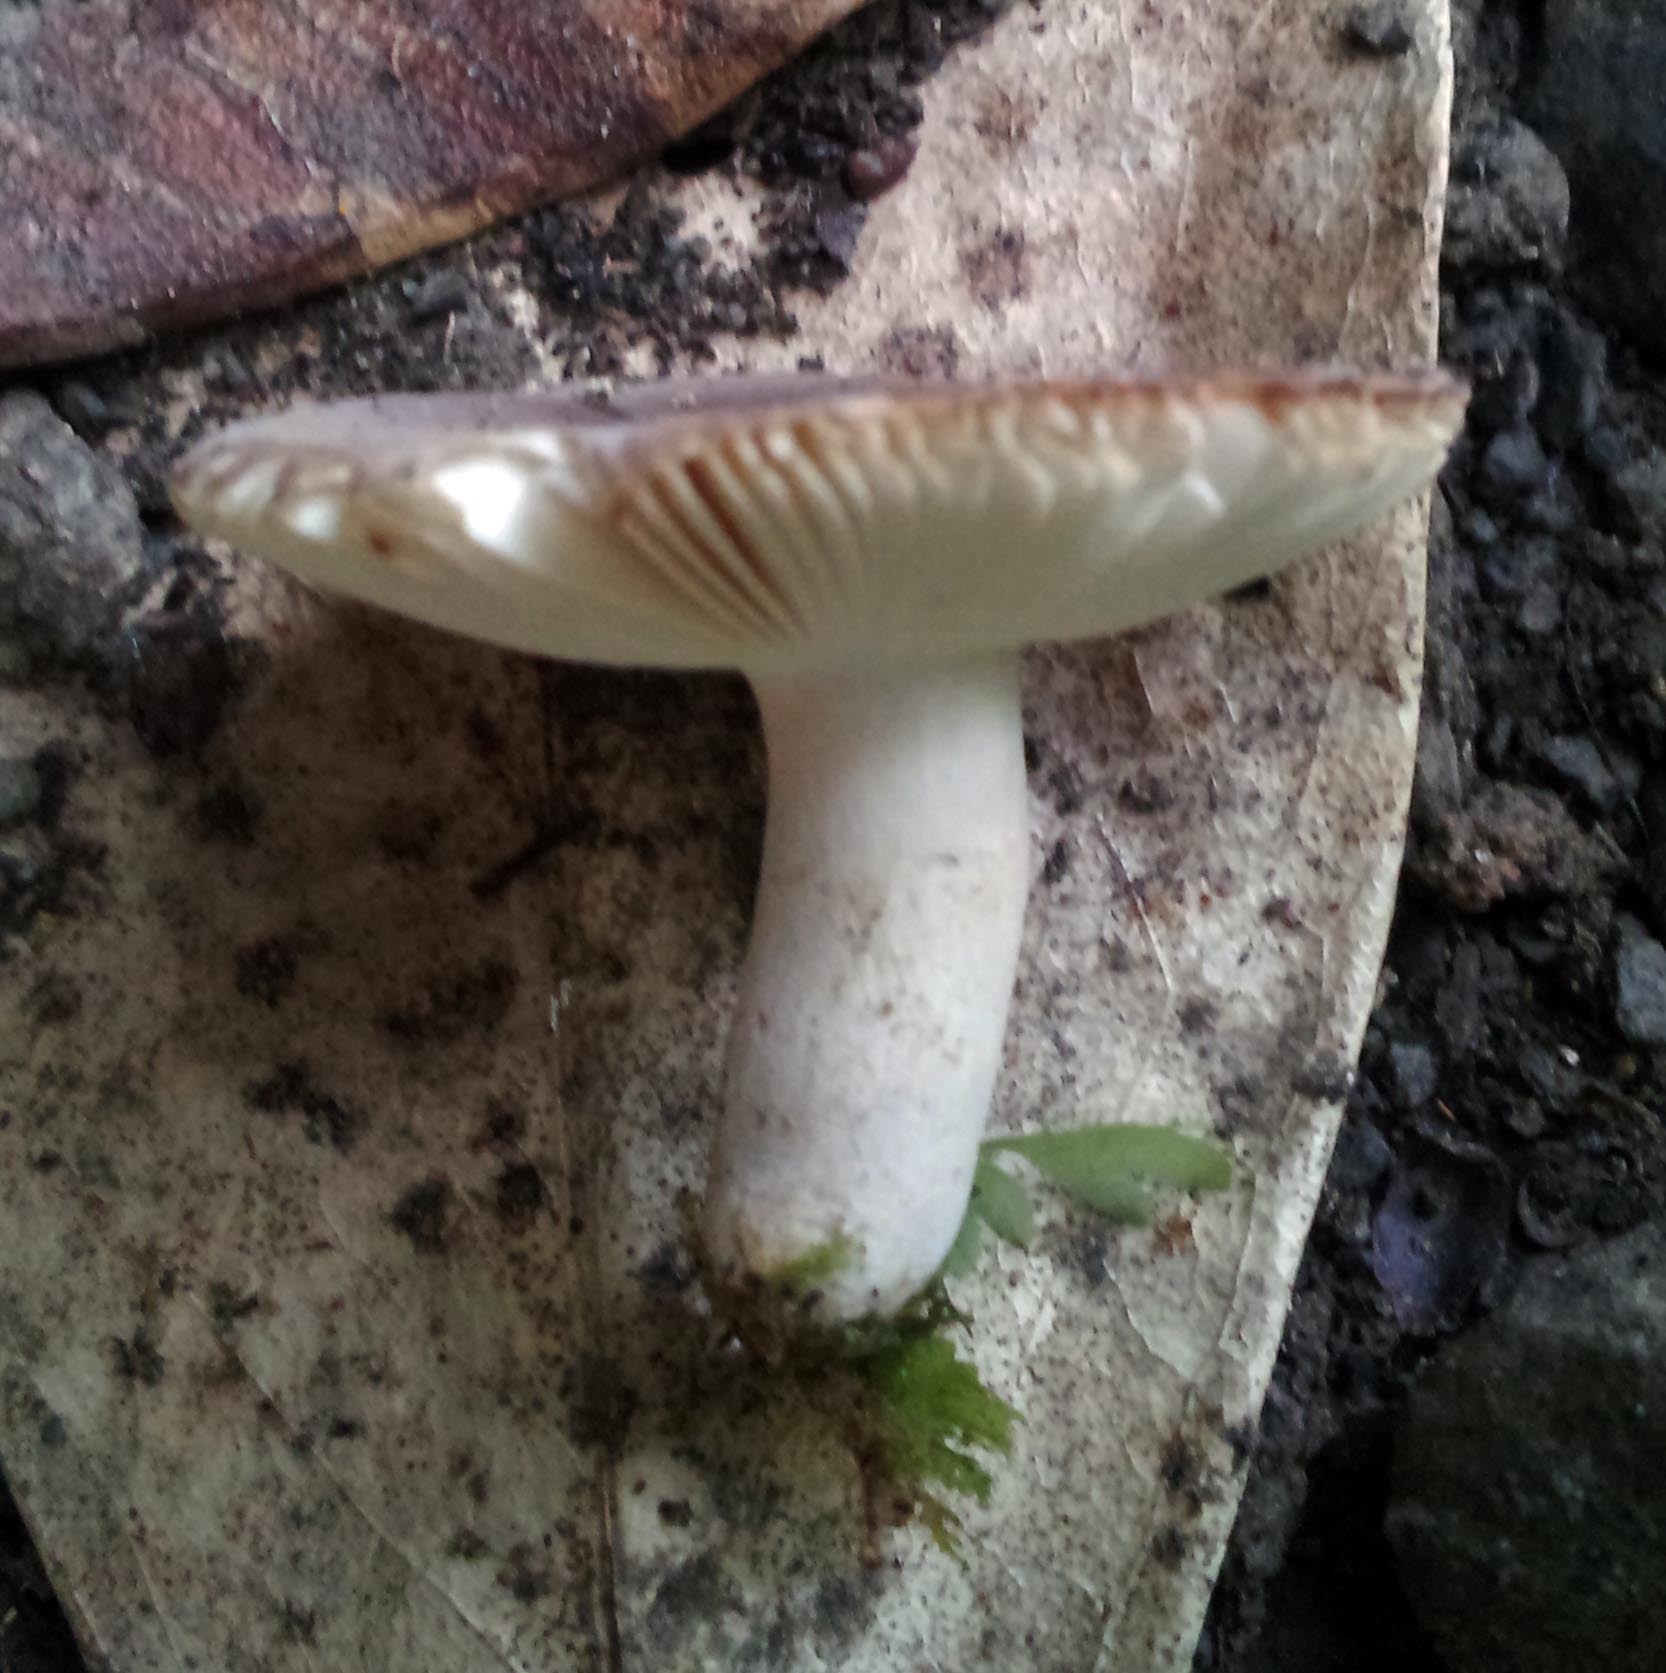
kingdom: Fungi
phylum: Basidiomycota
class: Agaricomycetes
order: Russulales
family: Russulaceae
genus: Russula
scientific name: Russula griseobrunnea
